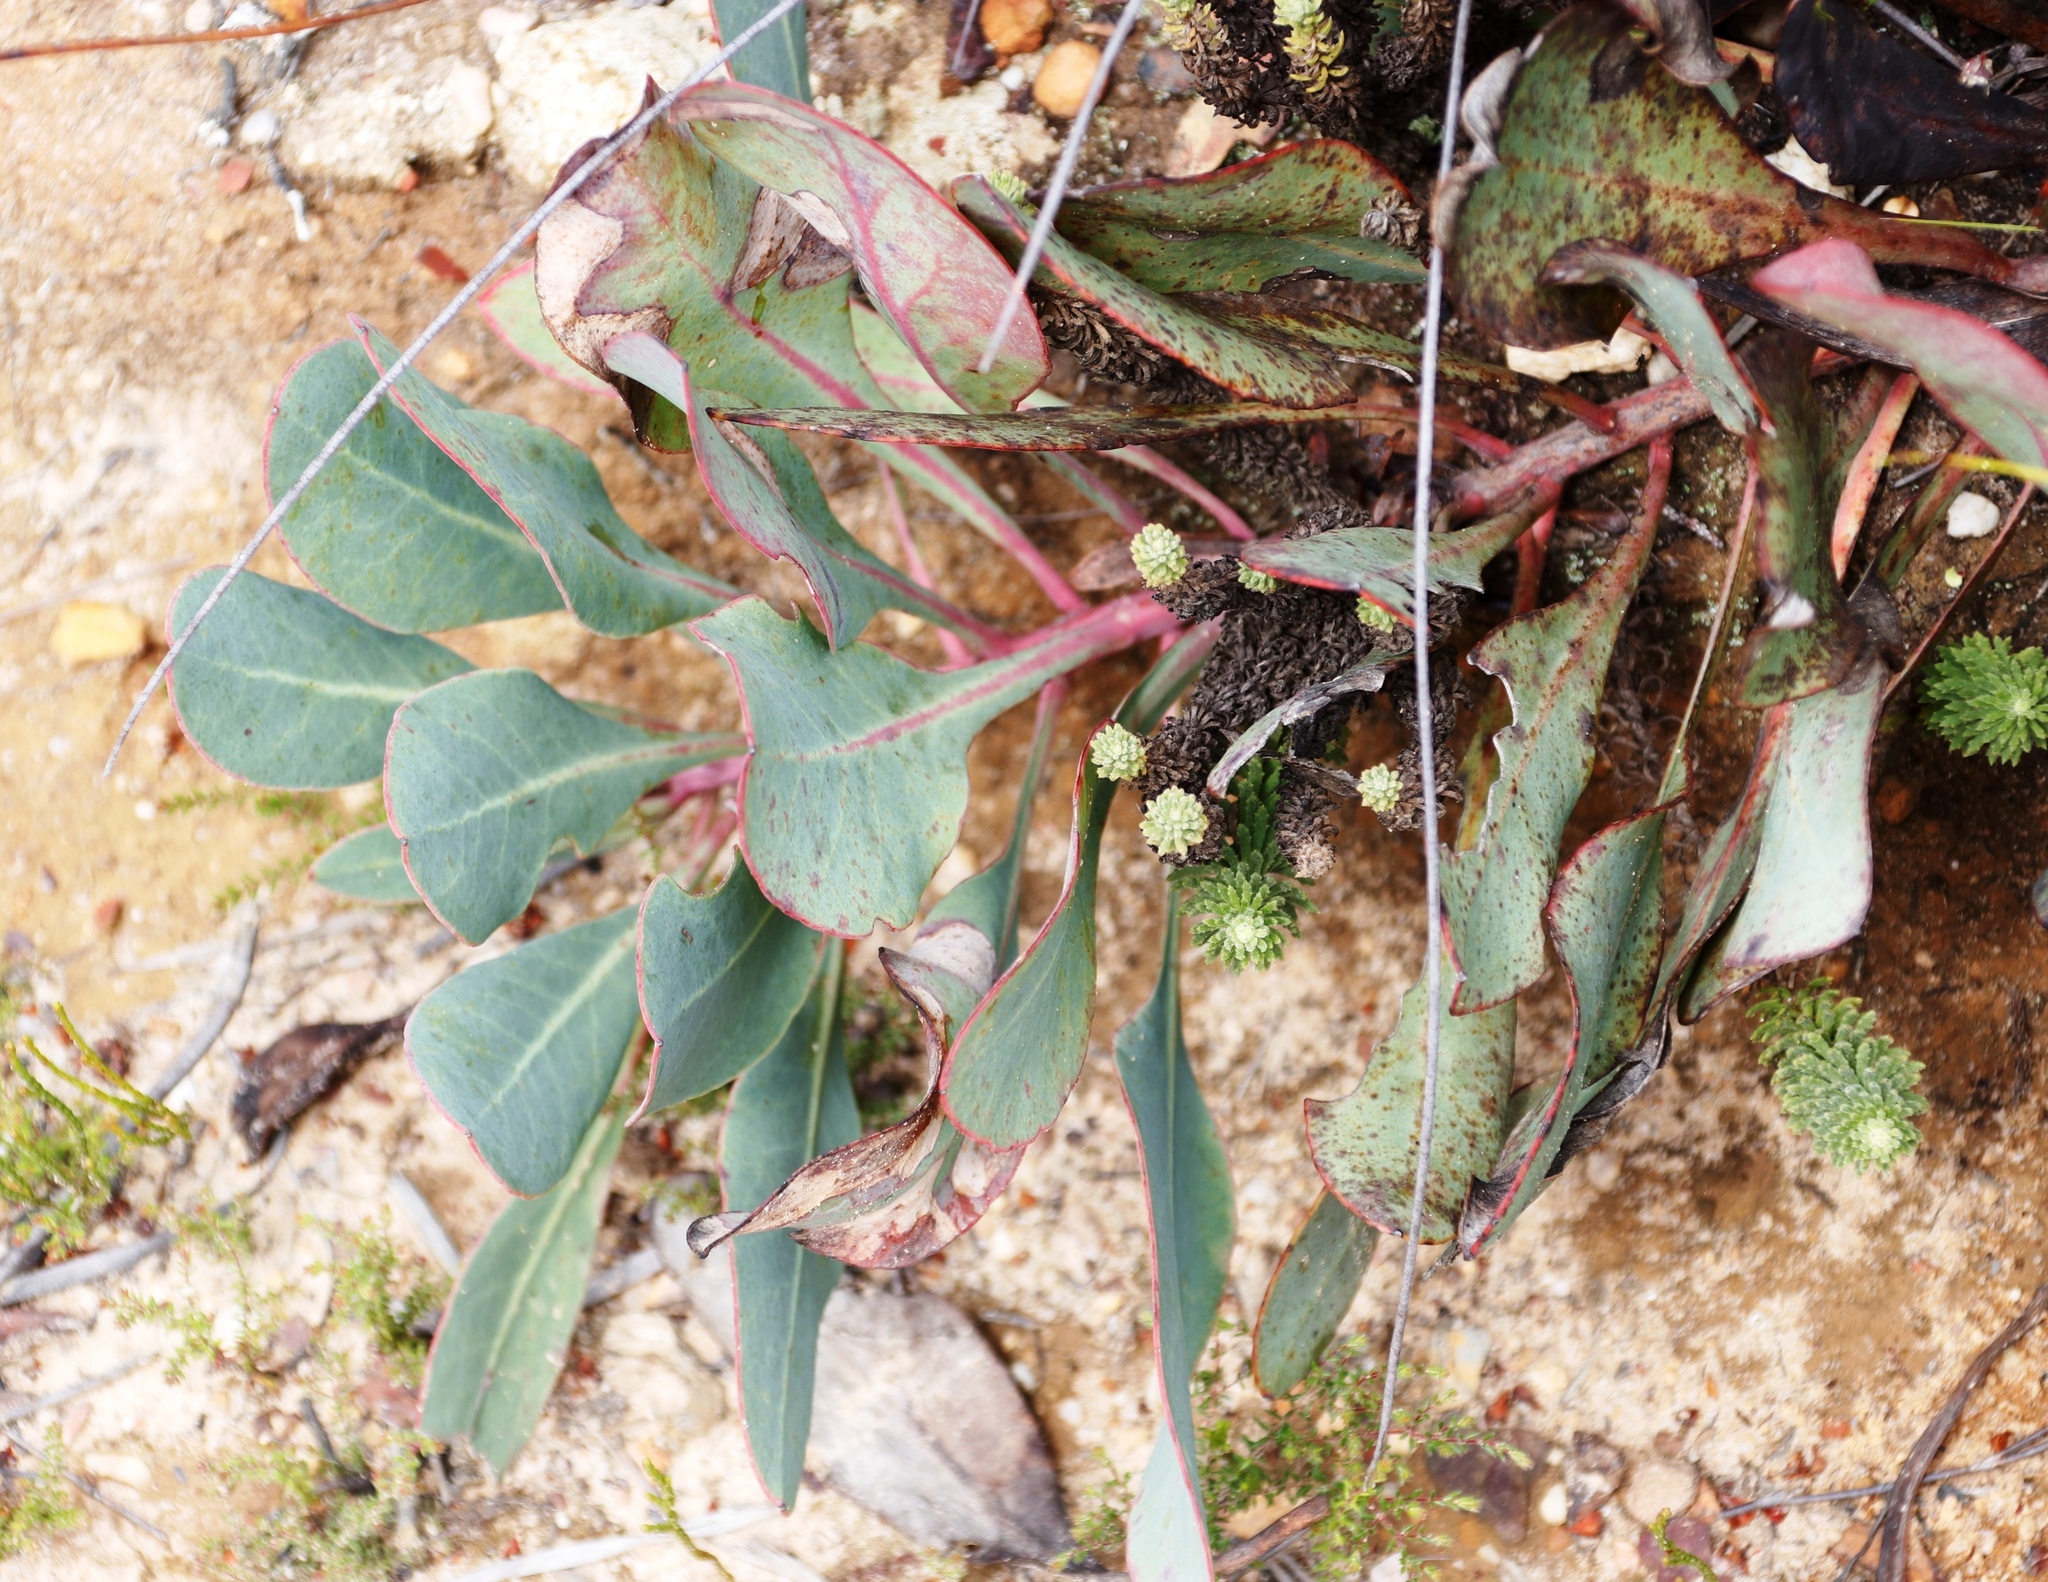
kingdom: Plantae
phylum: Tracheophyta
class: Magnoliopsida
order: Proteales
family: Proteaceae
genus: Protea
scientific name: Protea acaulos
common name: Common ground sugarbush
